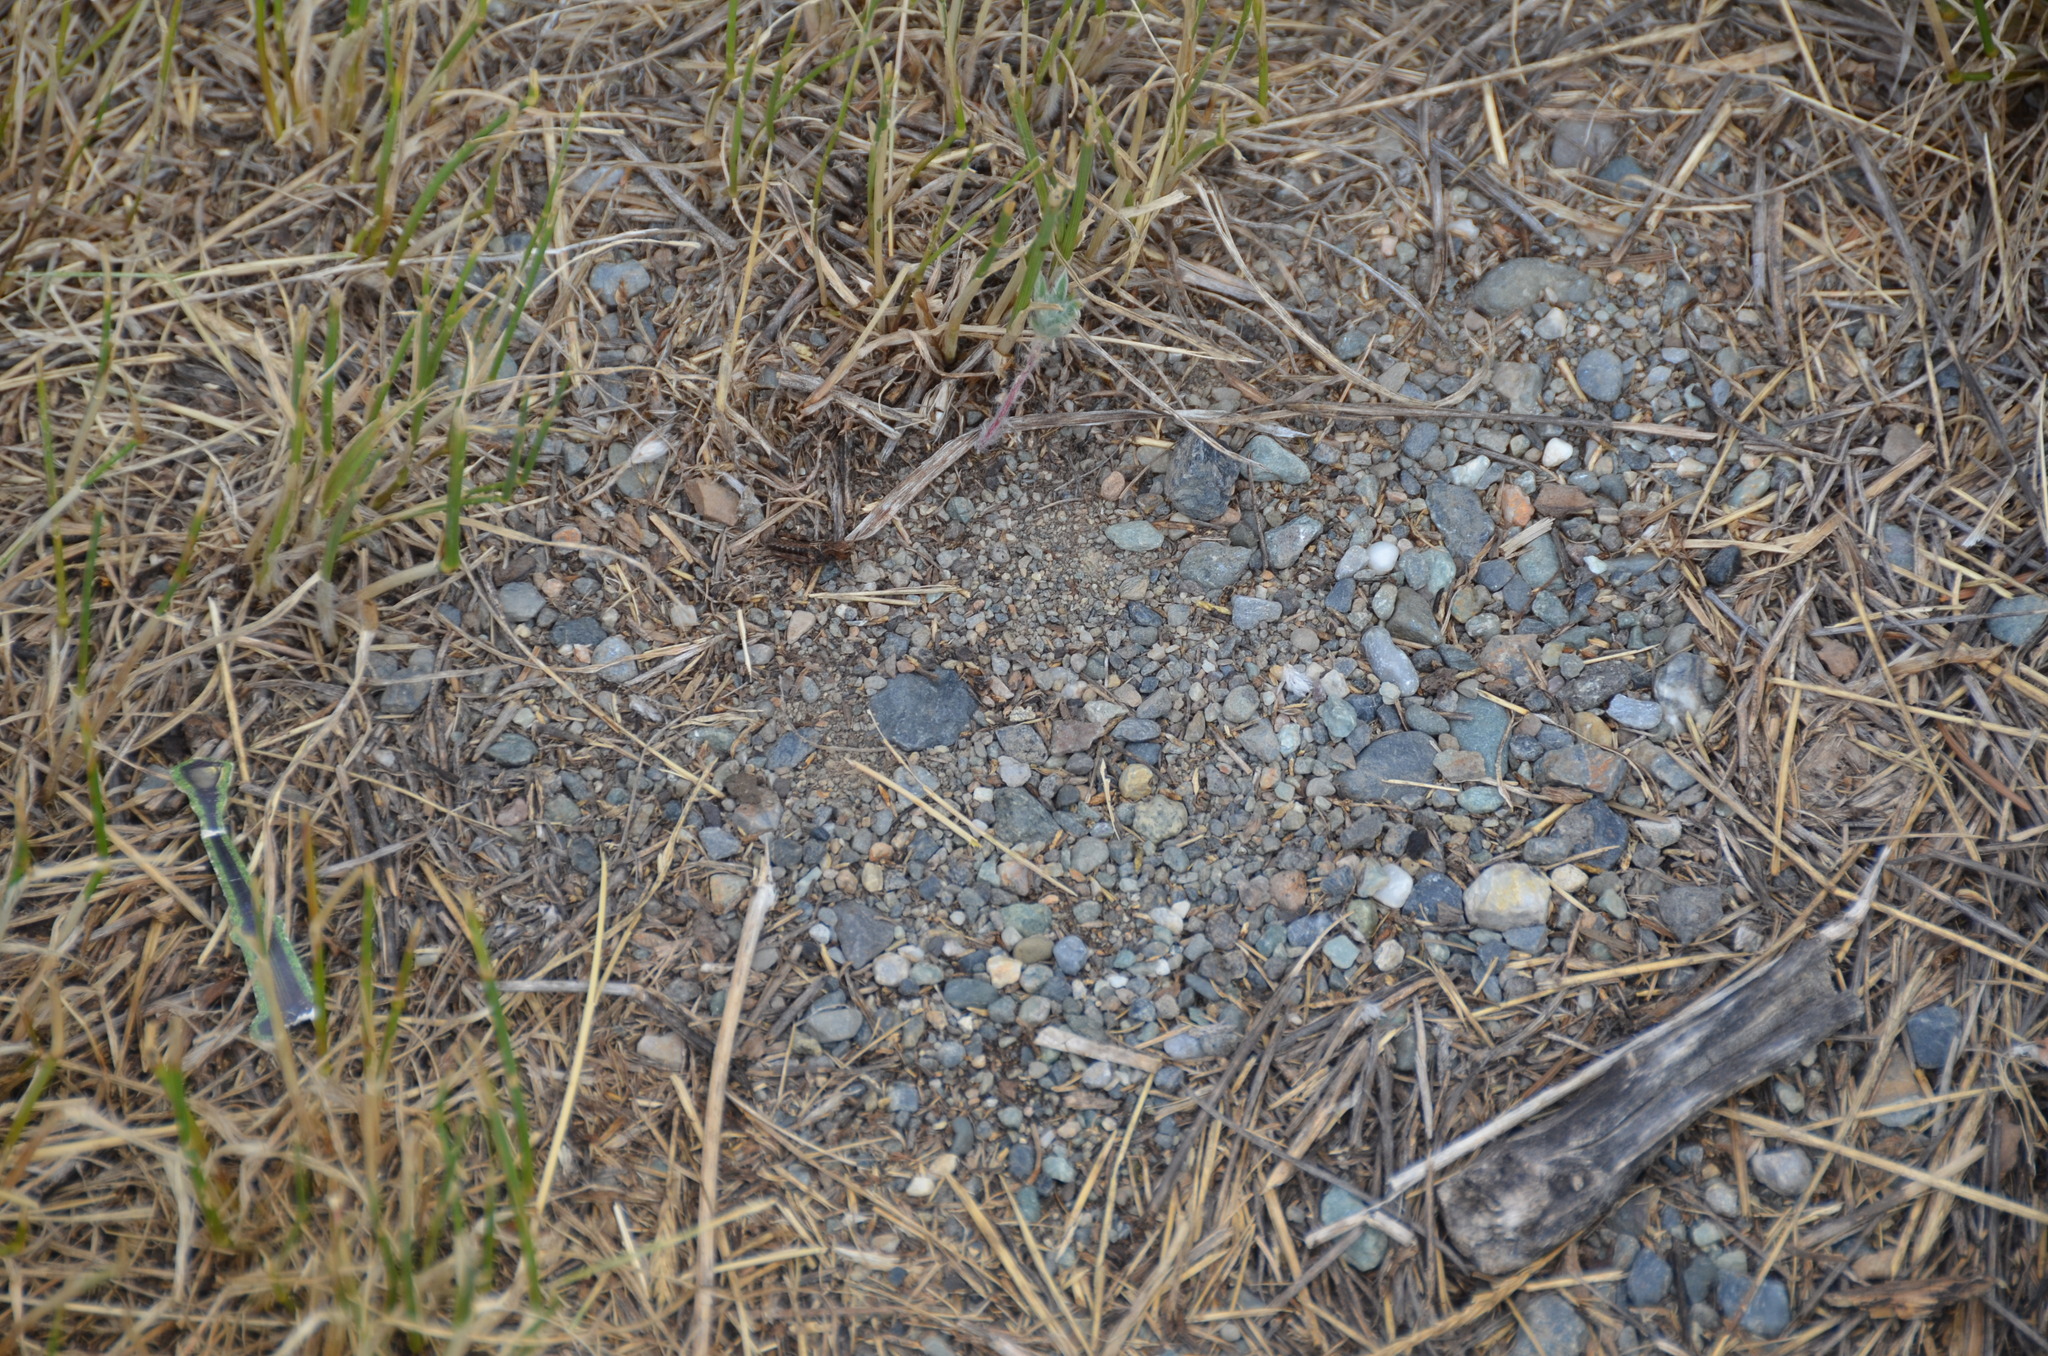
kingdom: Animalia
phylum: Arthropoda
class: Insecta
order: Orthoptera
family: Acrididae
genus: Camnula
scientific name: Camnula pellucida
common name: Clear-winged grasshopper
